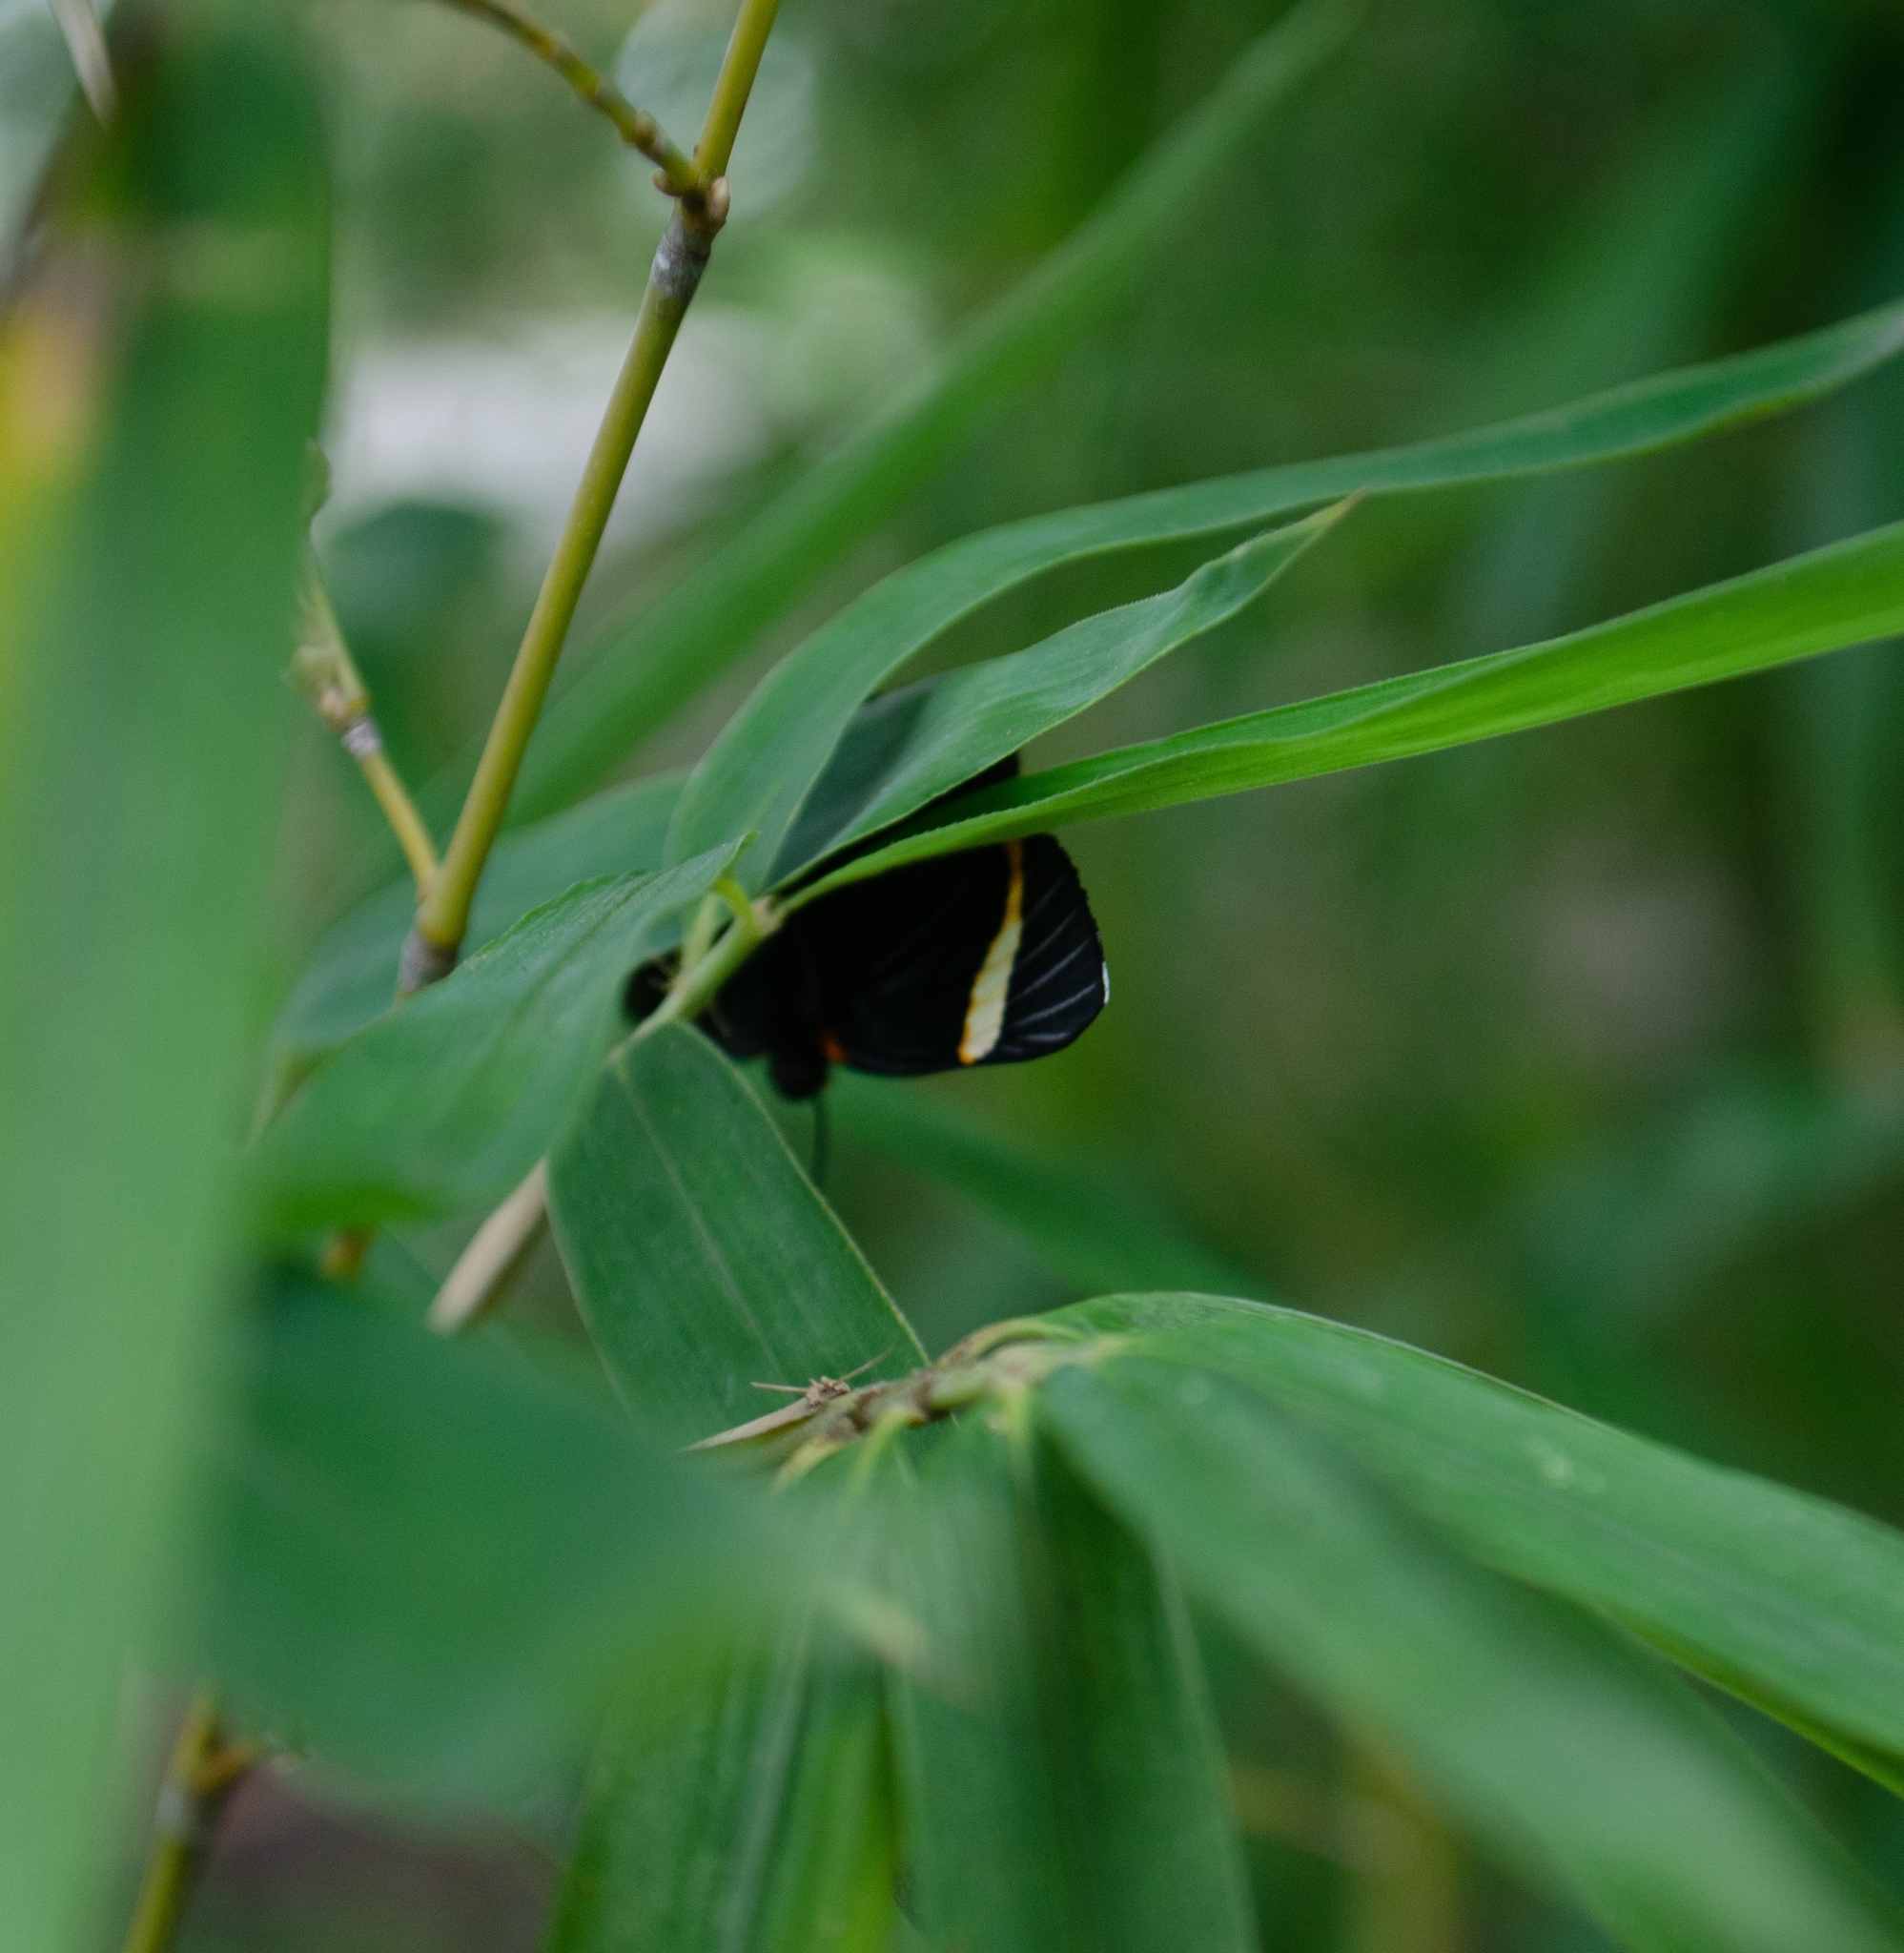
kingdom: Animalia
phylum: Arthropoda
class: Insecta
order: Lepidoptera
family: Riodinidae
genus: Riodina
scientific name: Riodina lycisca
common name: Lycisca metalmark
